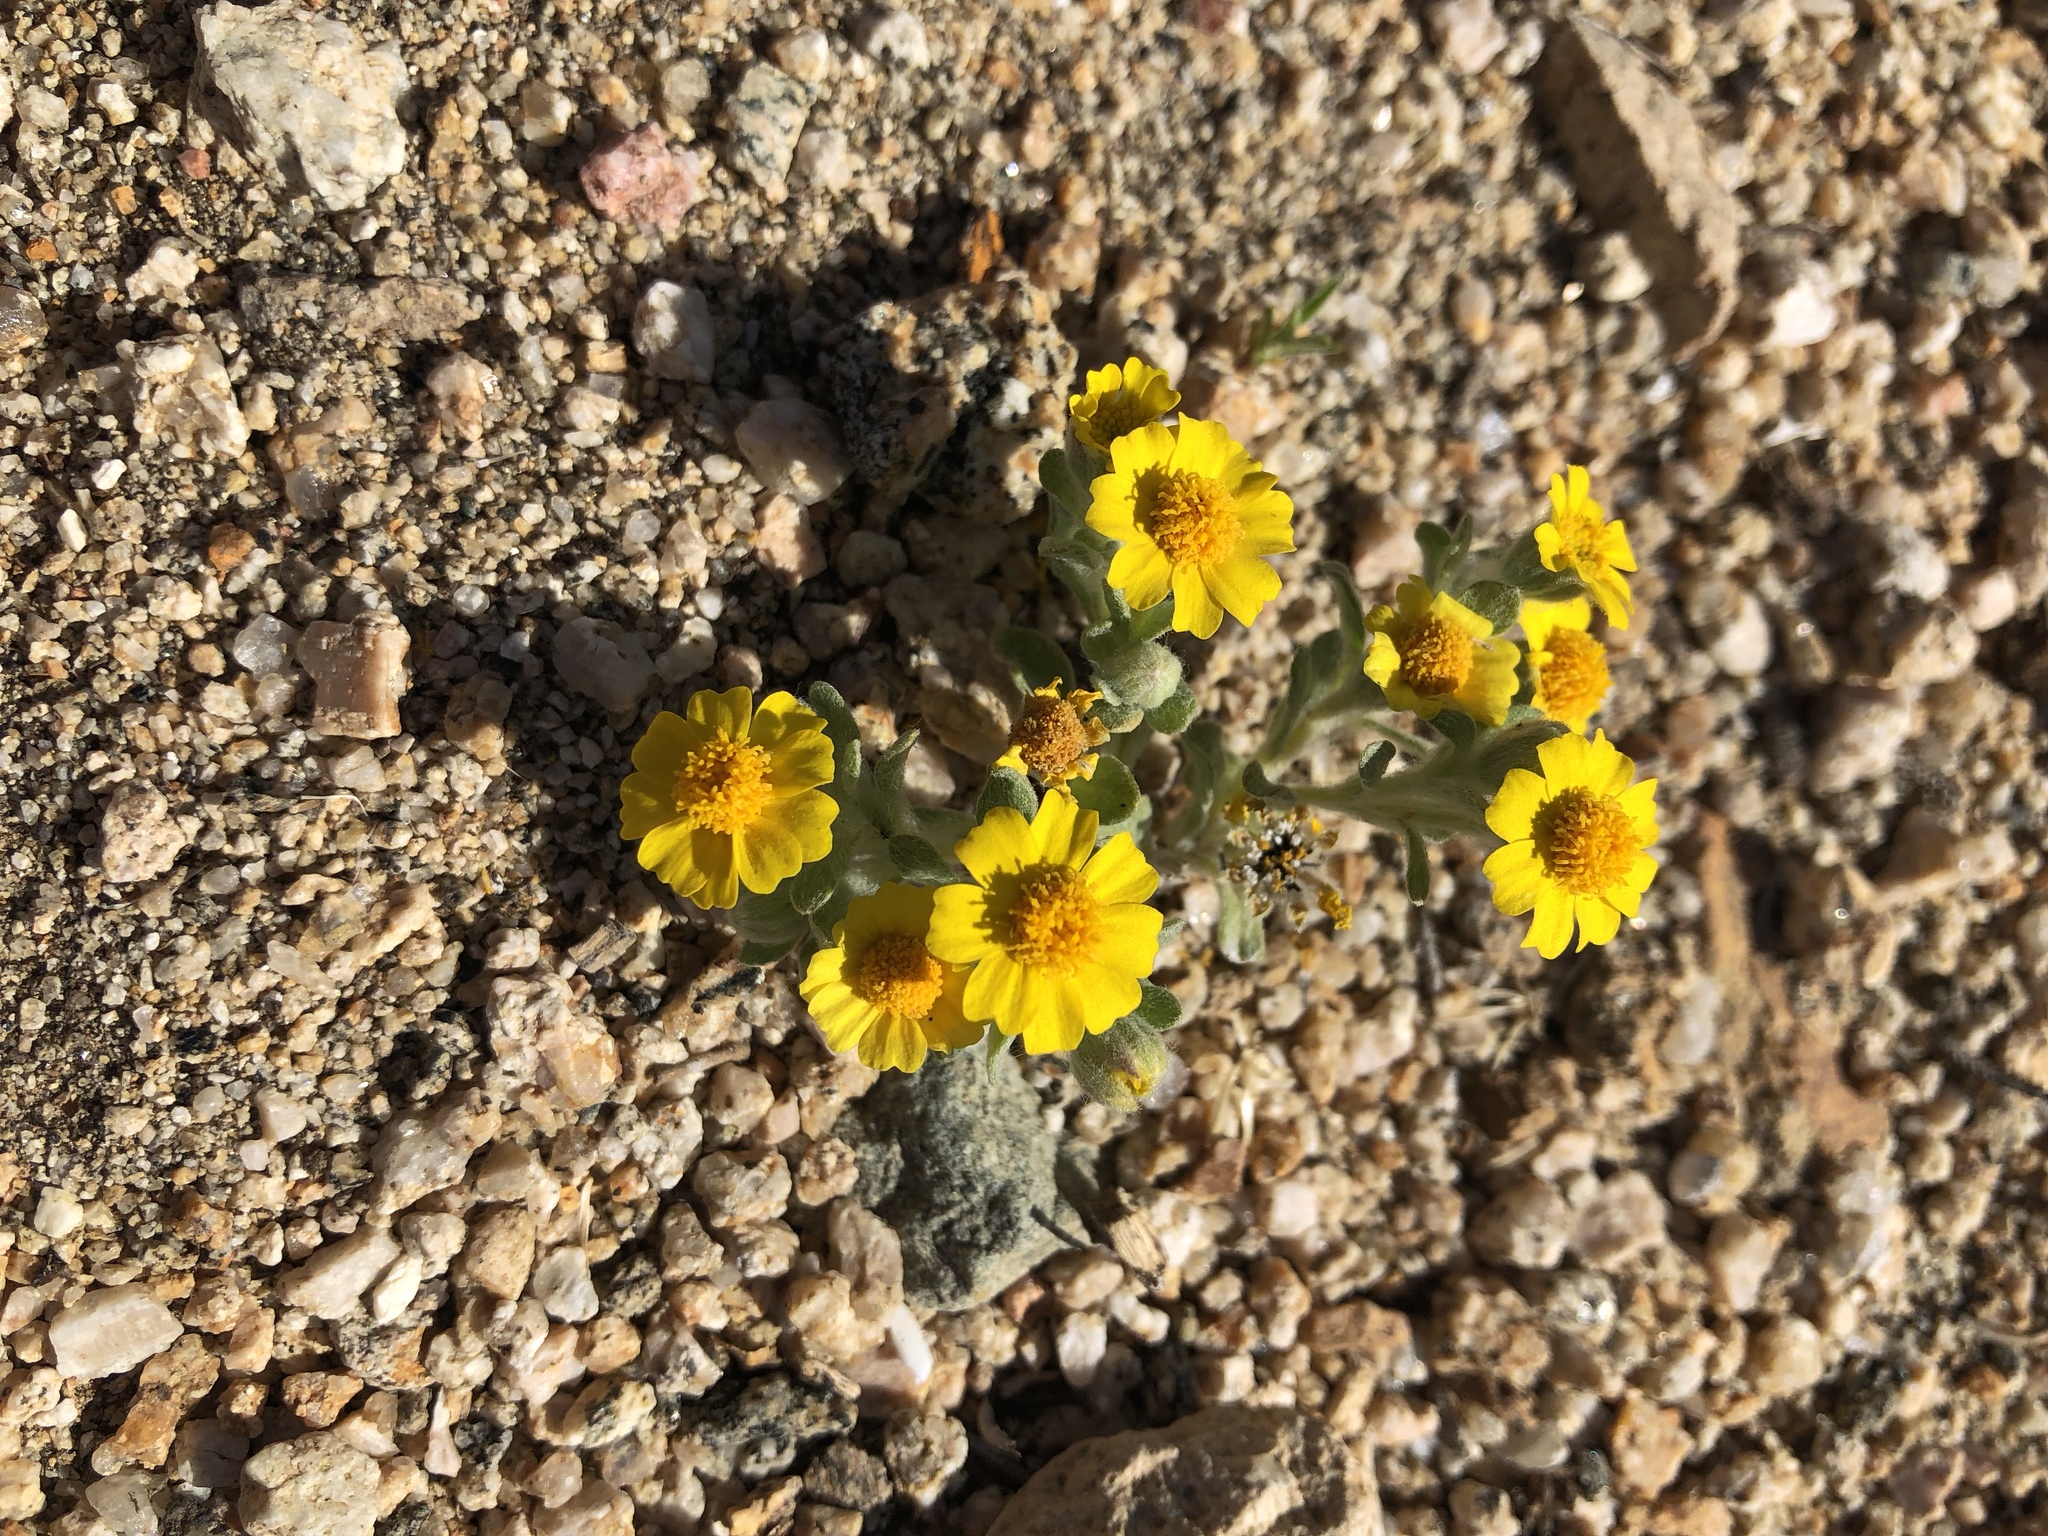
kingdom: Plantae
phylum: Tracheophyta
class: Magnoliopsida
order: Asterales
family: Asteraceae
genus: Eriophyllum
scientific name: Eriophyllum wallacei
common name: Wallace's woolly daisy
